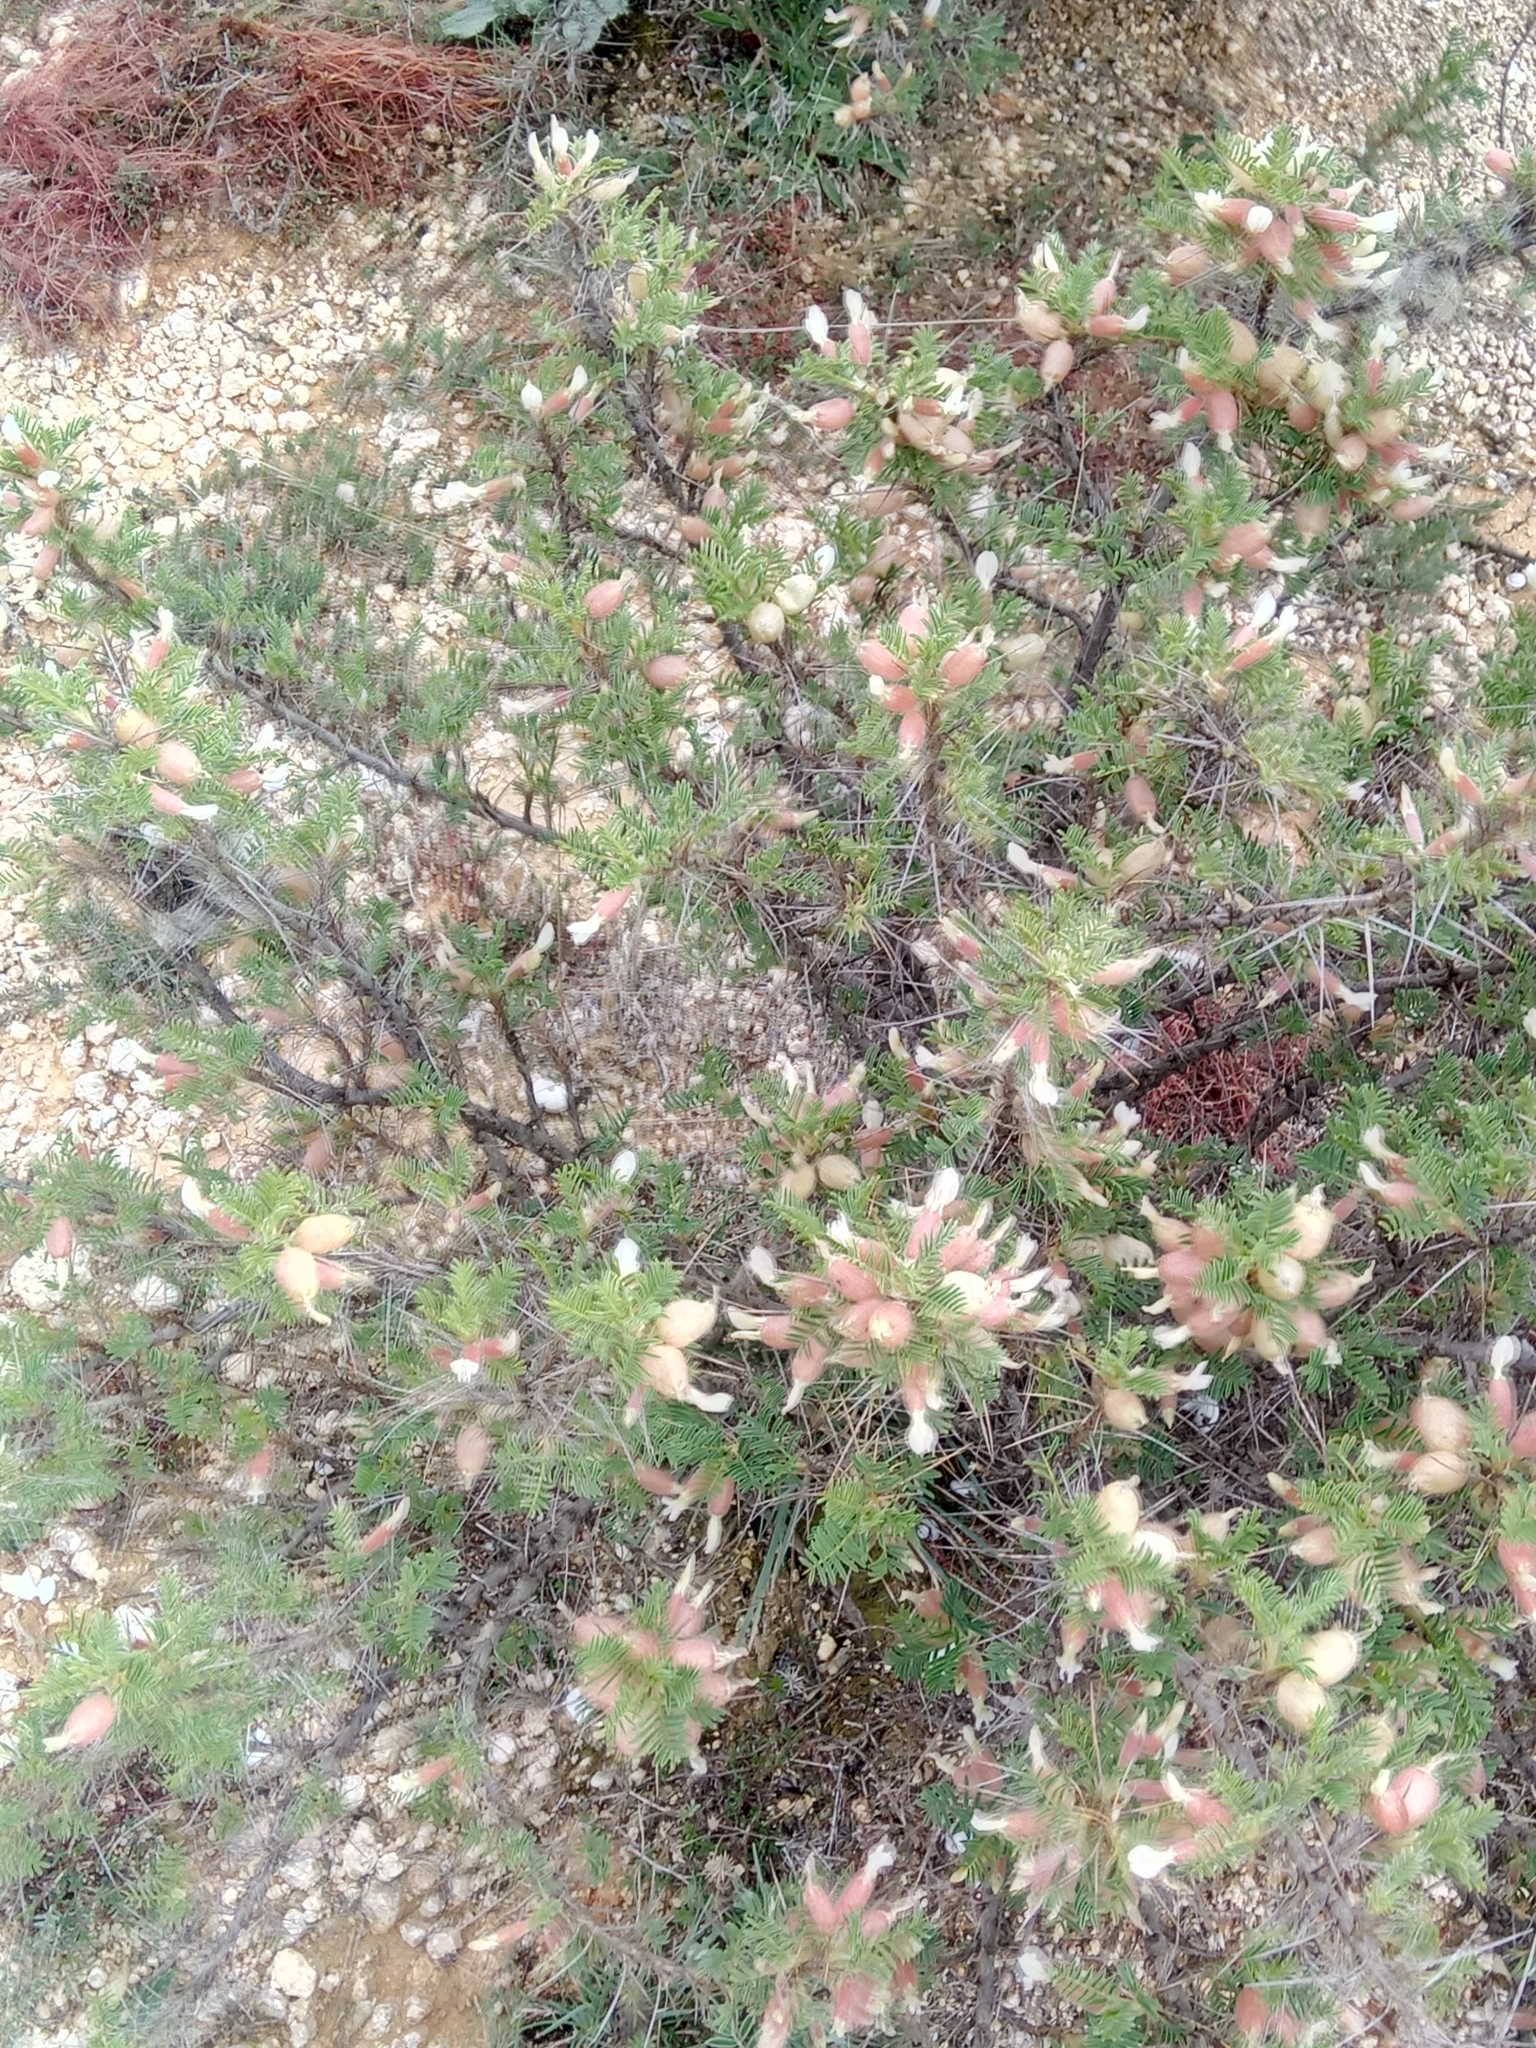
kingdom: Plantae
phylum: Tracheophyta
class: Magnoliopsida
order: Fabales
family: Fabaceae
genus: Astragalus
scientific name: Astragalus armatus
